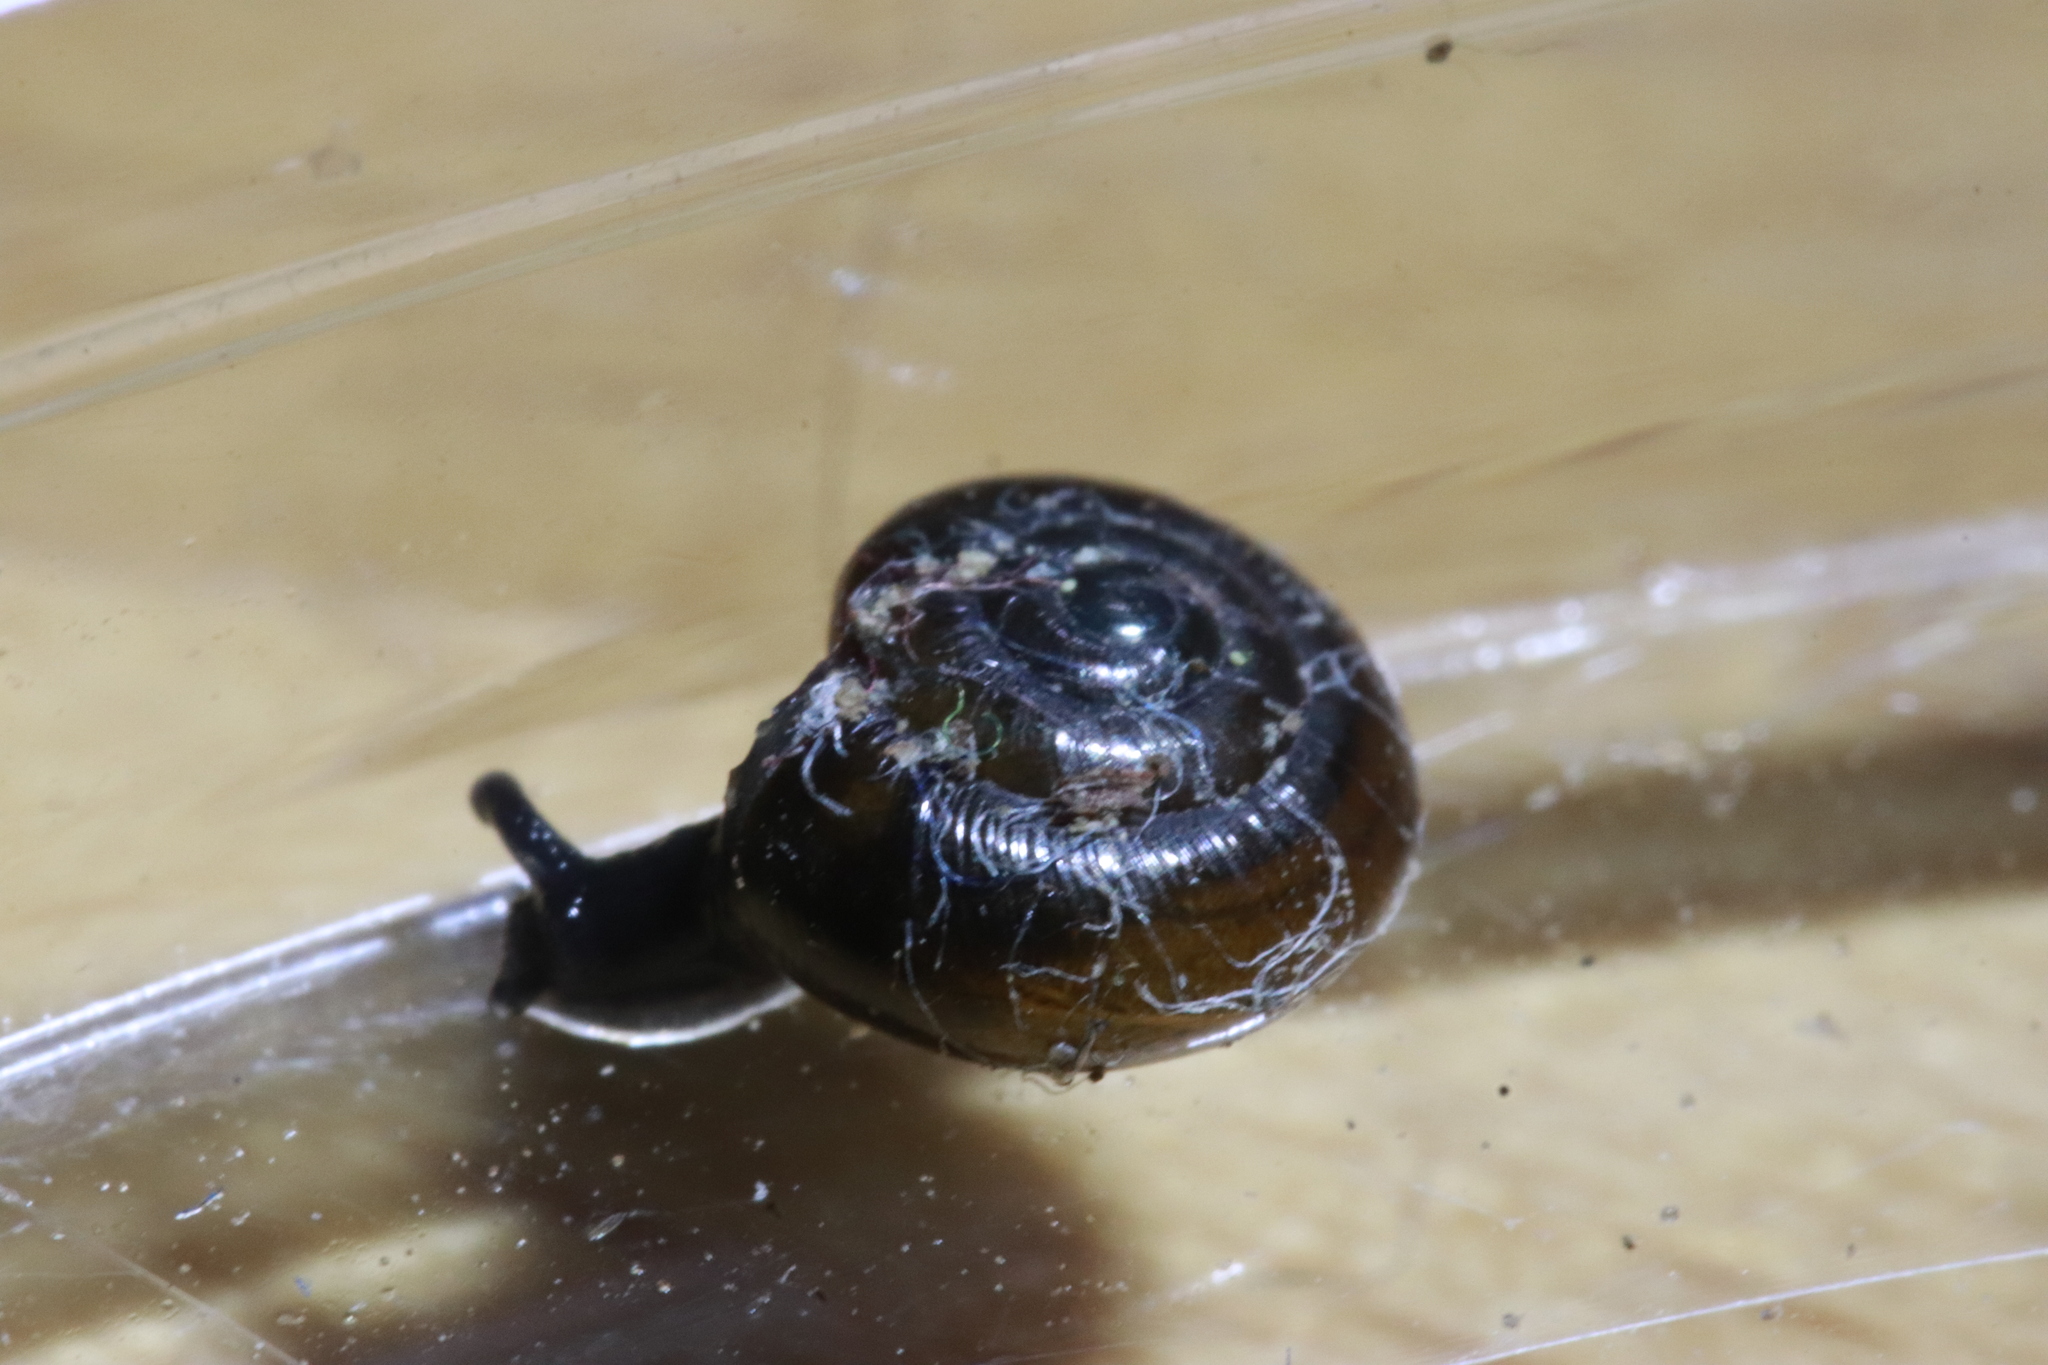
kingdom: Animalia
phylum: Mollusca
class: Gastropoda
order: Stylommatophora
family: Gastrodontidae
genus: Zonitoides
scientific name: Zonitoides nitidus
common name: Shiny glass snail
